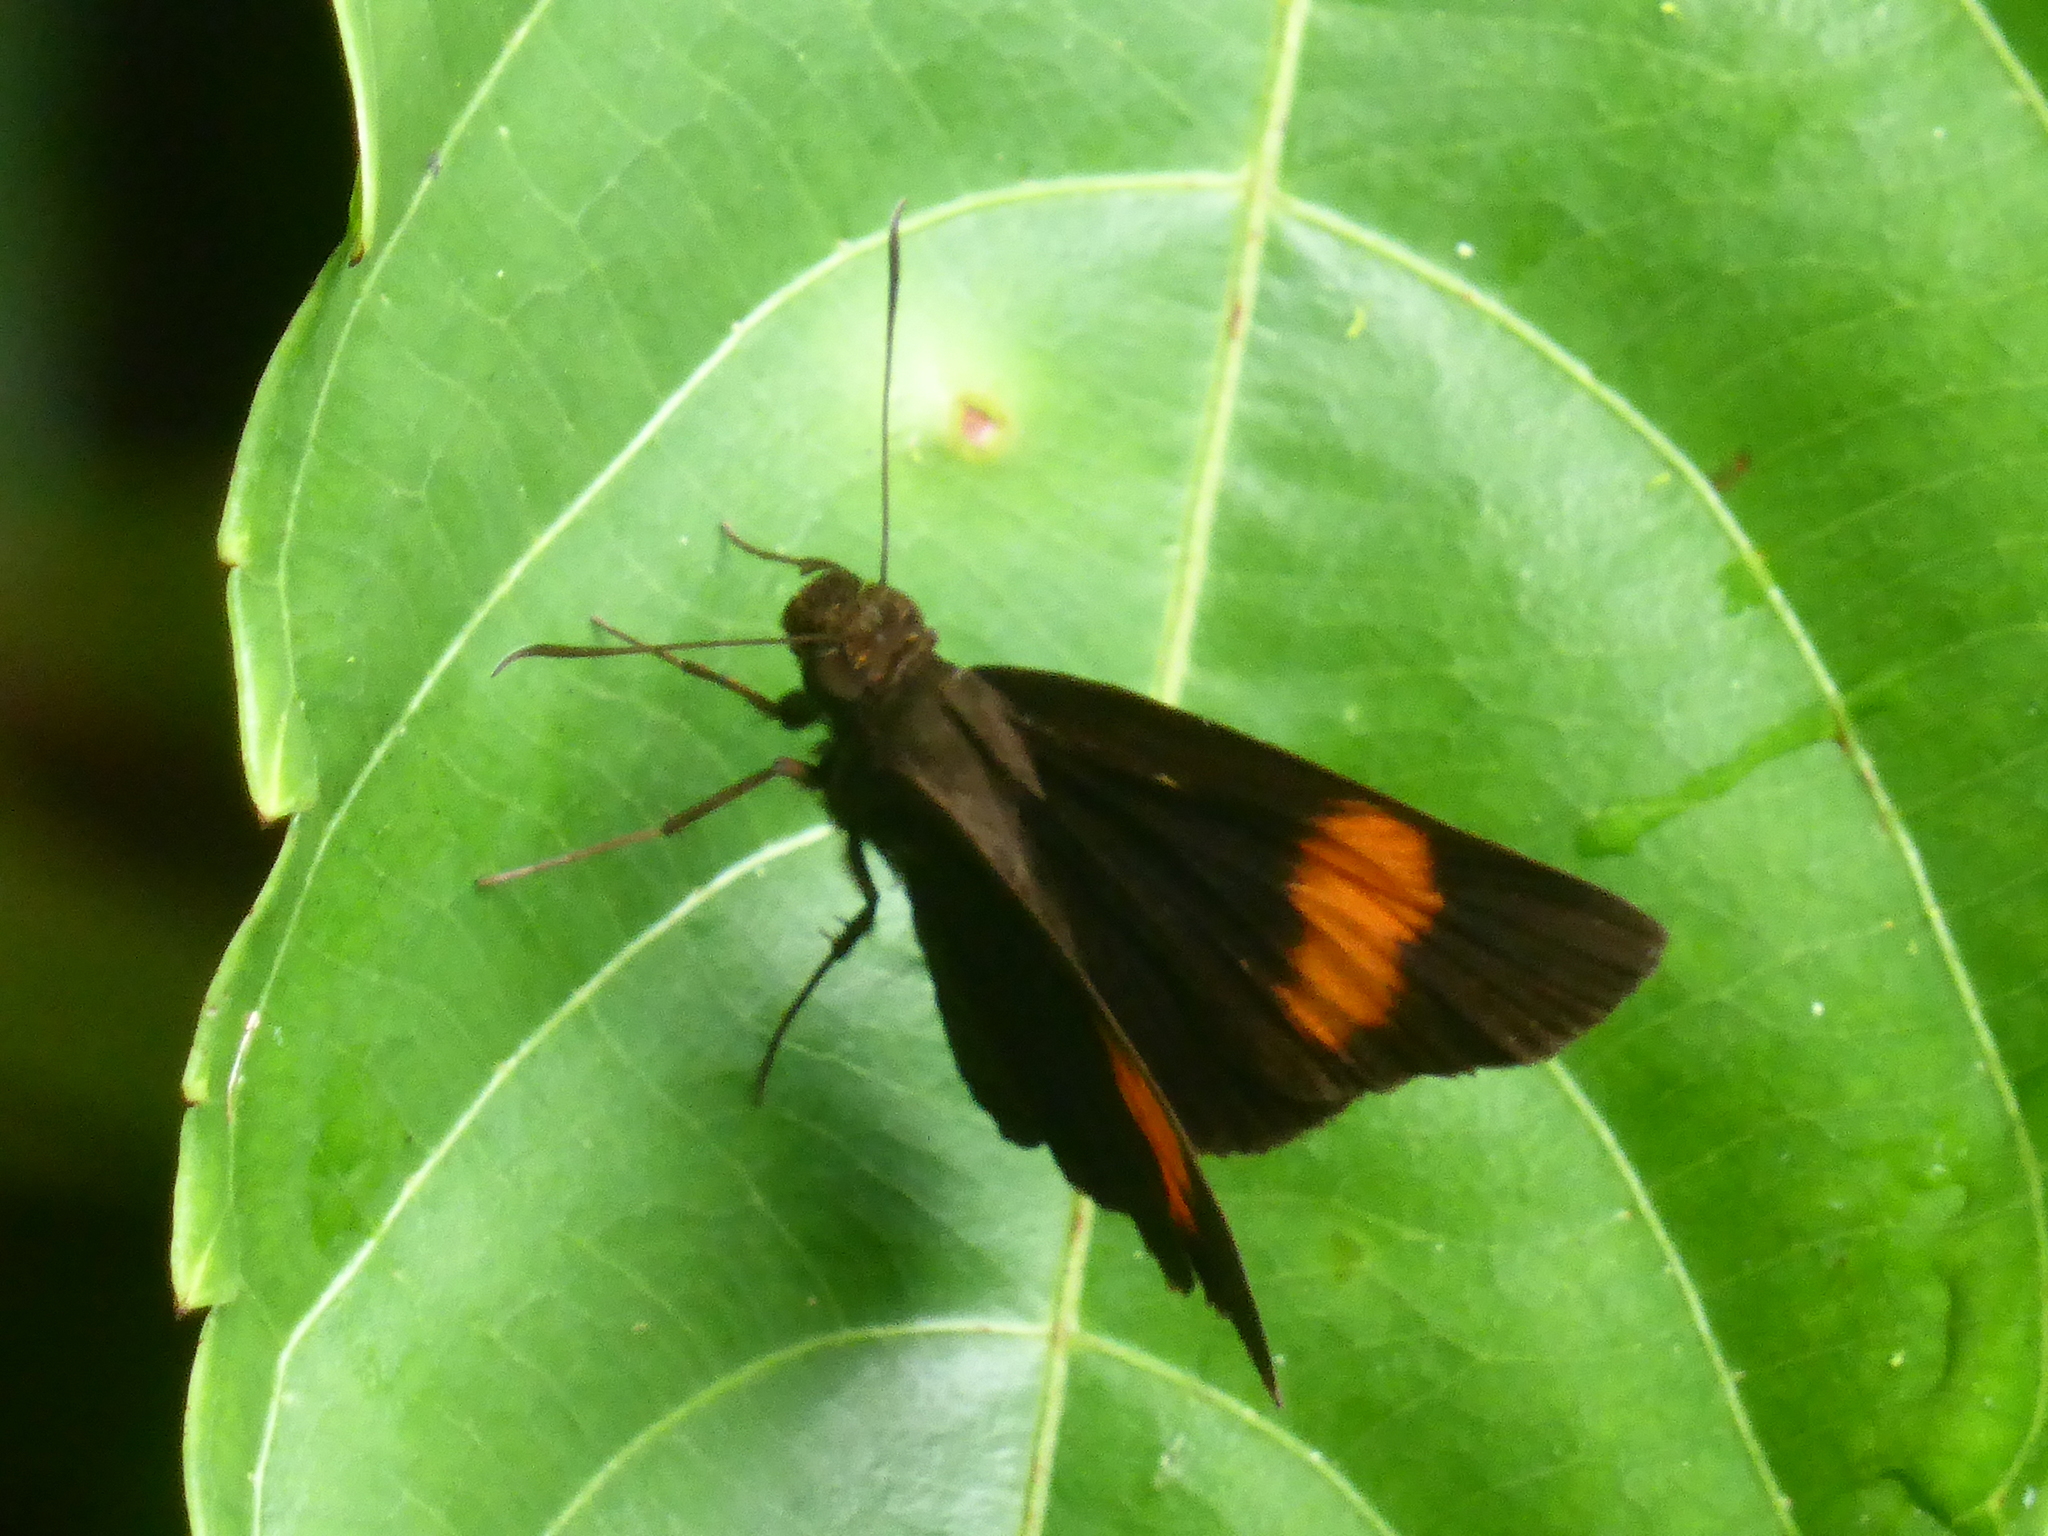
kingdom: Animalia
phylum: Arthropoda
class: Insecta
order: Lepidoptera
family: Hesperiidae
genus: Koruthaialos
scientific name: Koruthaialos sindu
